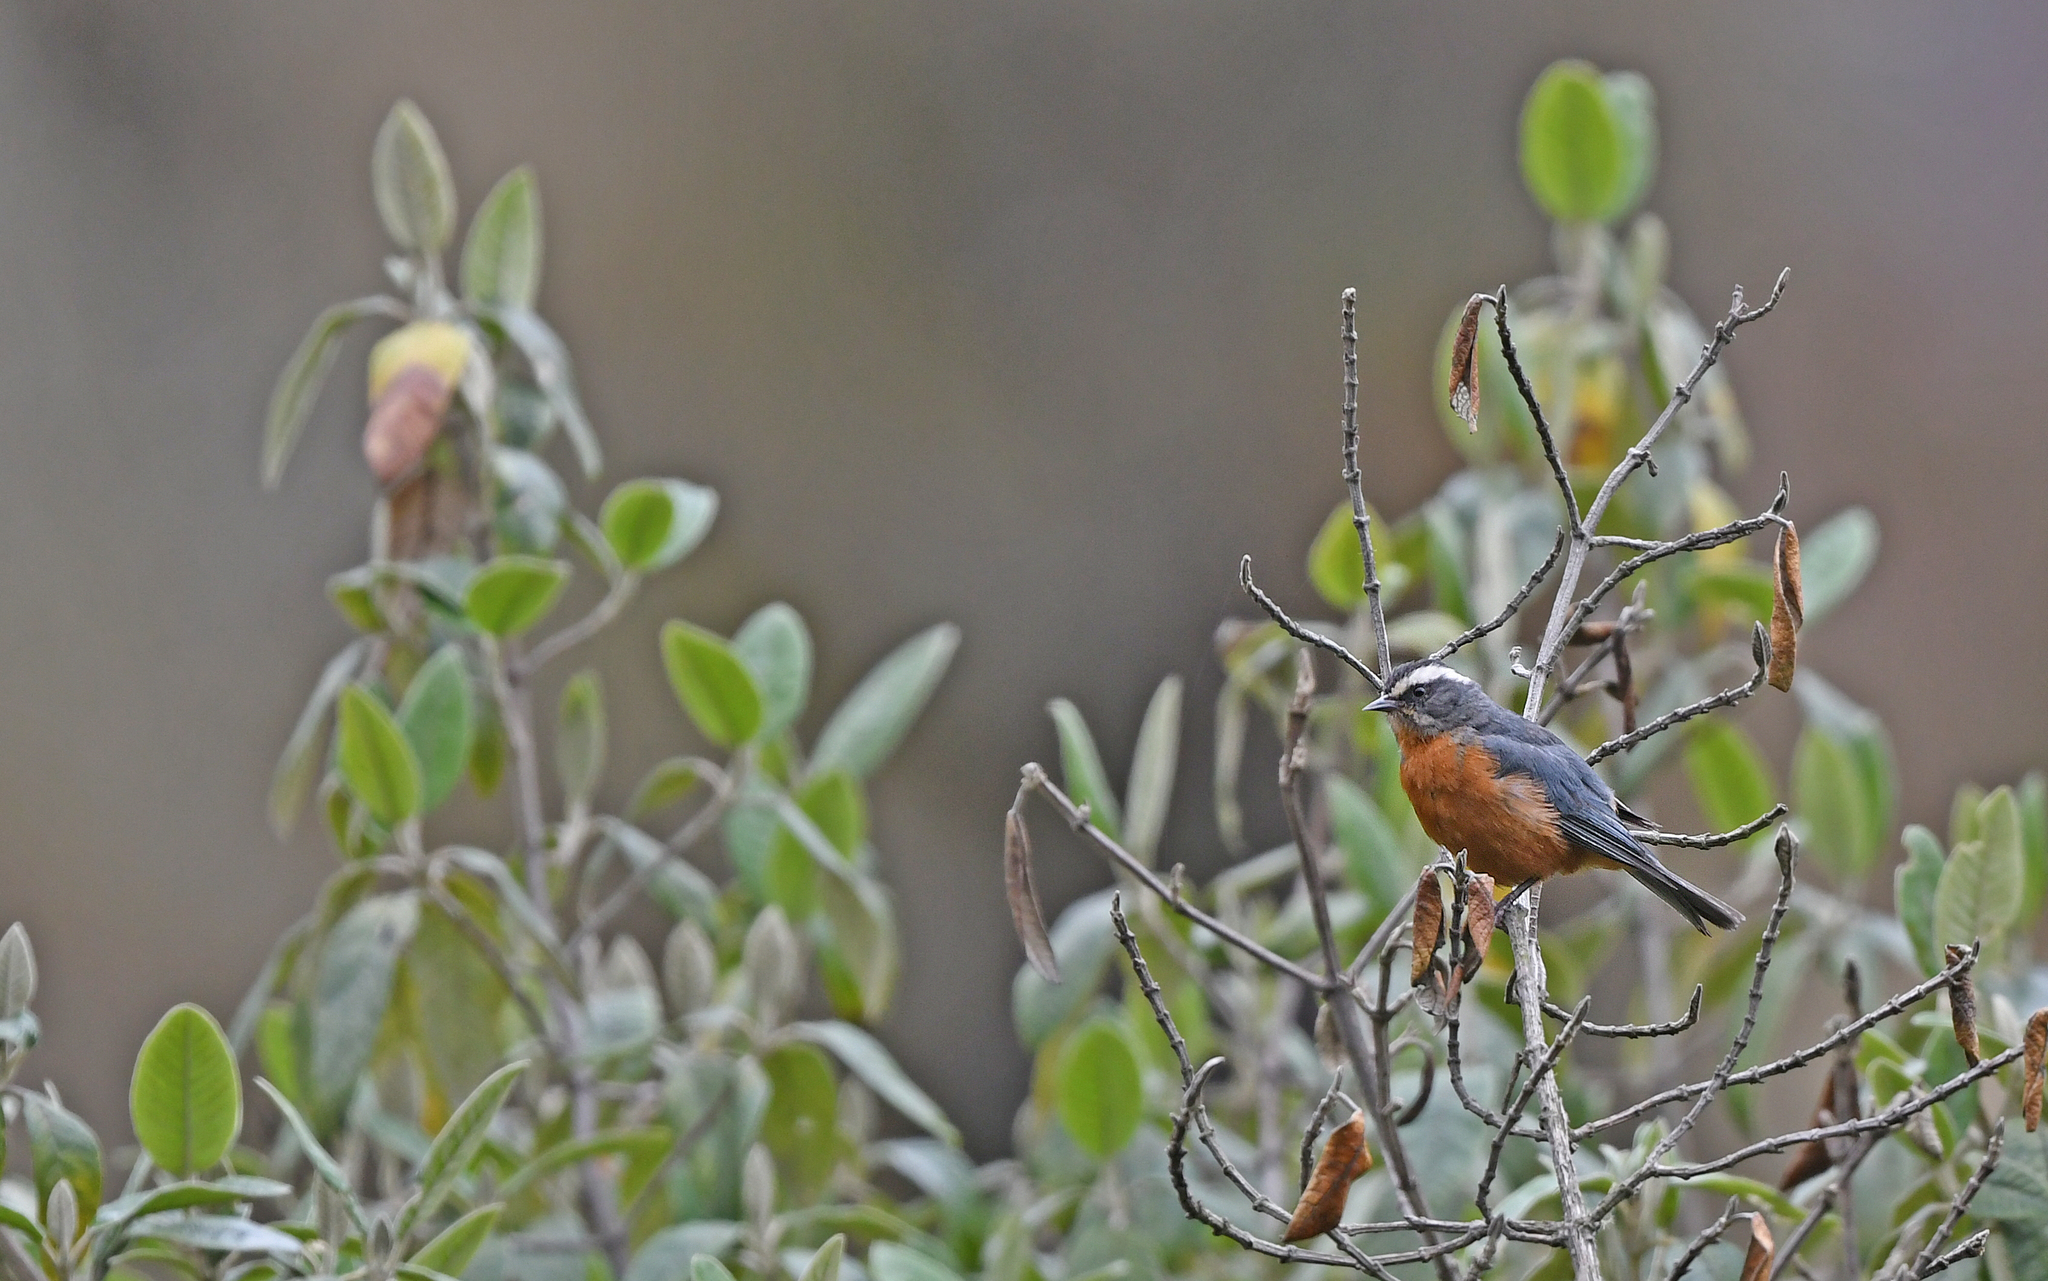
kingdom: Animalia
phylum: Chordata
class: Aves
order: Passeriformes
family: Thraupidae
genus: Conirostrum
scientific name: Conirostrum ferrugineiventre
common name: White-browed conebill
